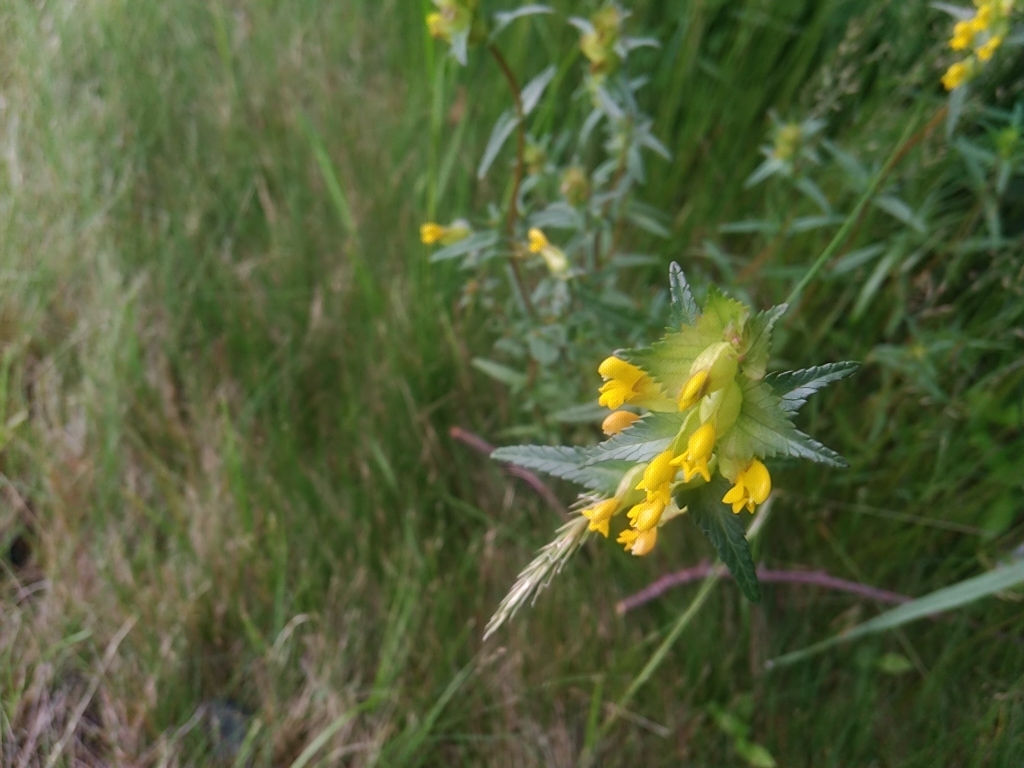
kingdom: Plantae
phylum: Tracheophyta
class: Magnoliopsida
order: Lamiales
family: Orobanchaceae
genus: Rhinanthus
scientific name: Rhinanthus minor
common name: Yellow-rattle
